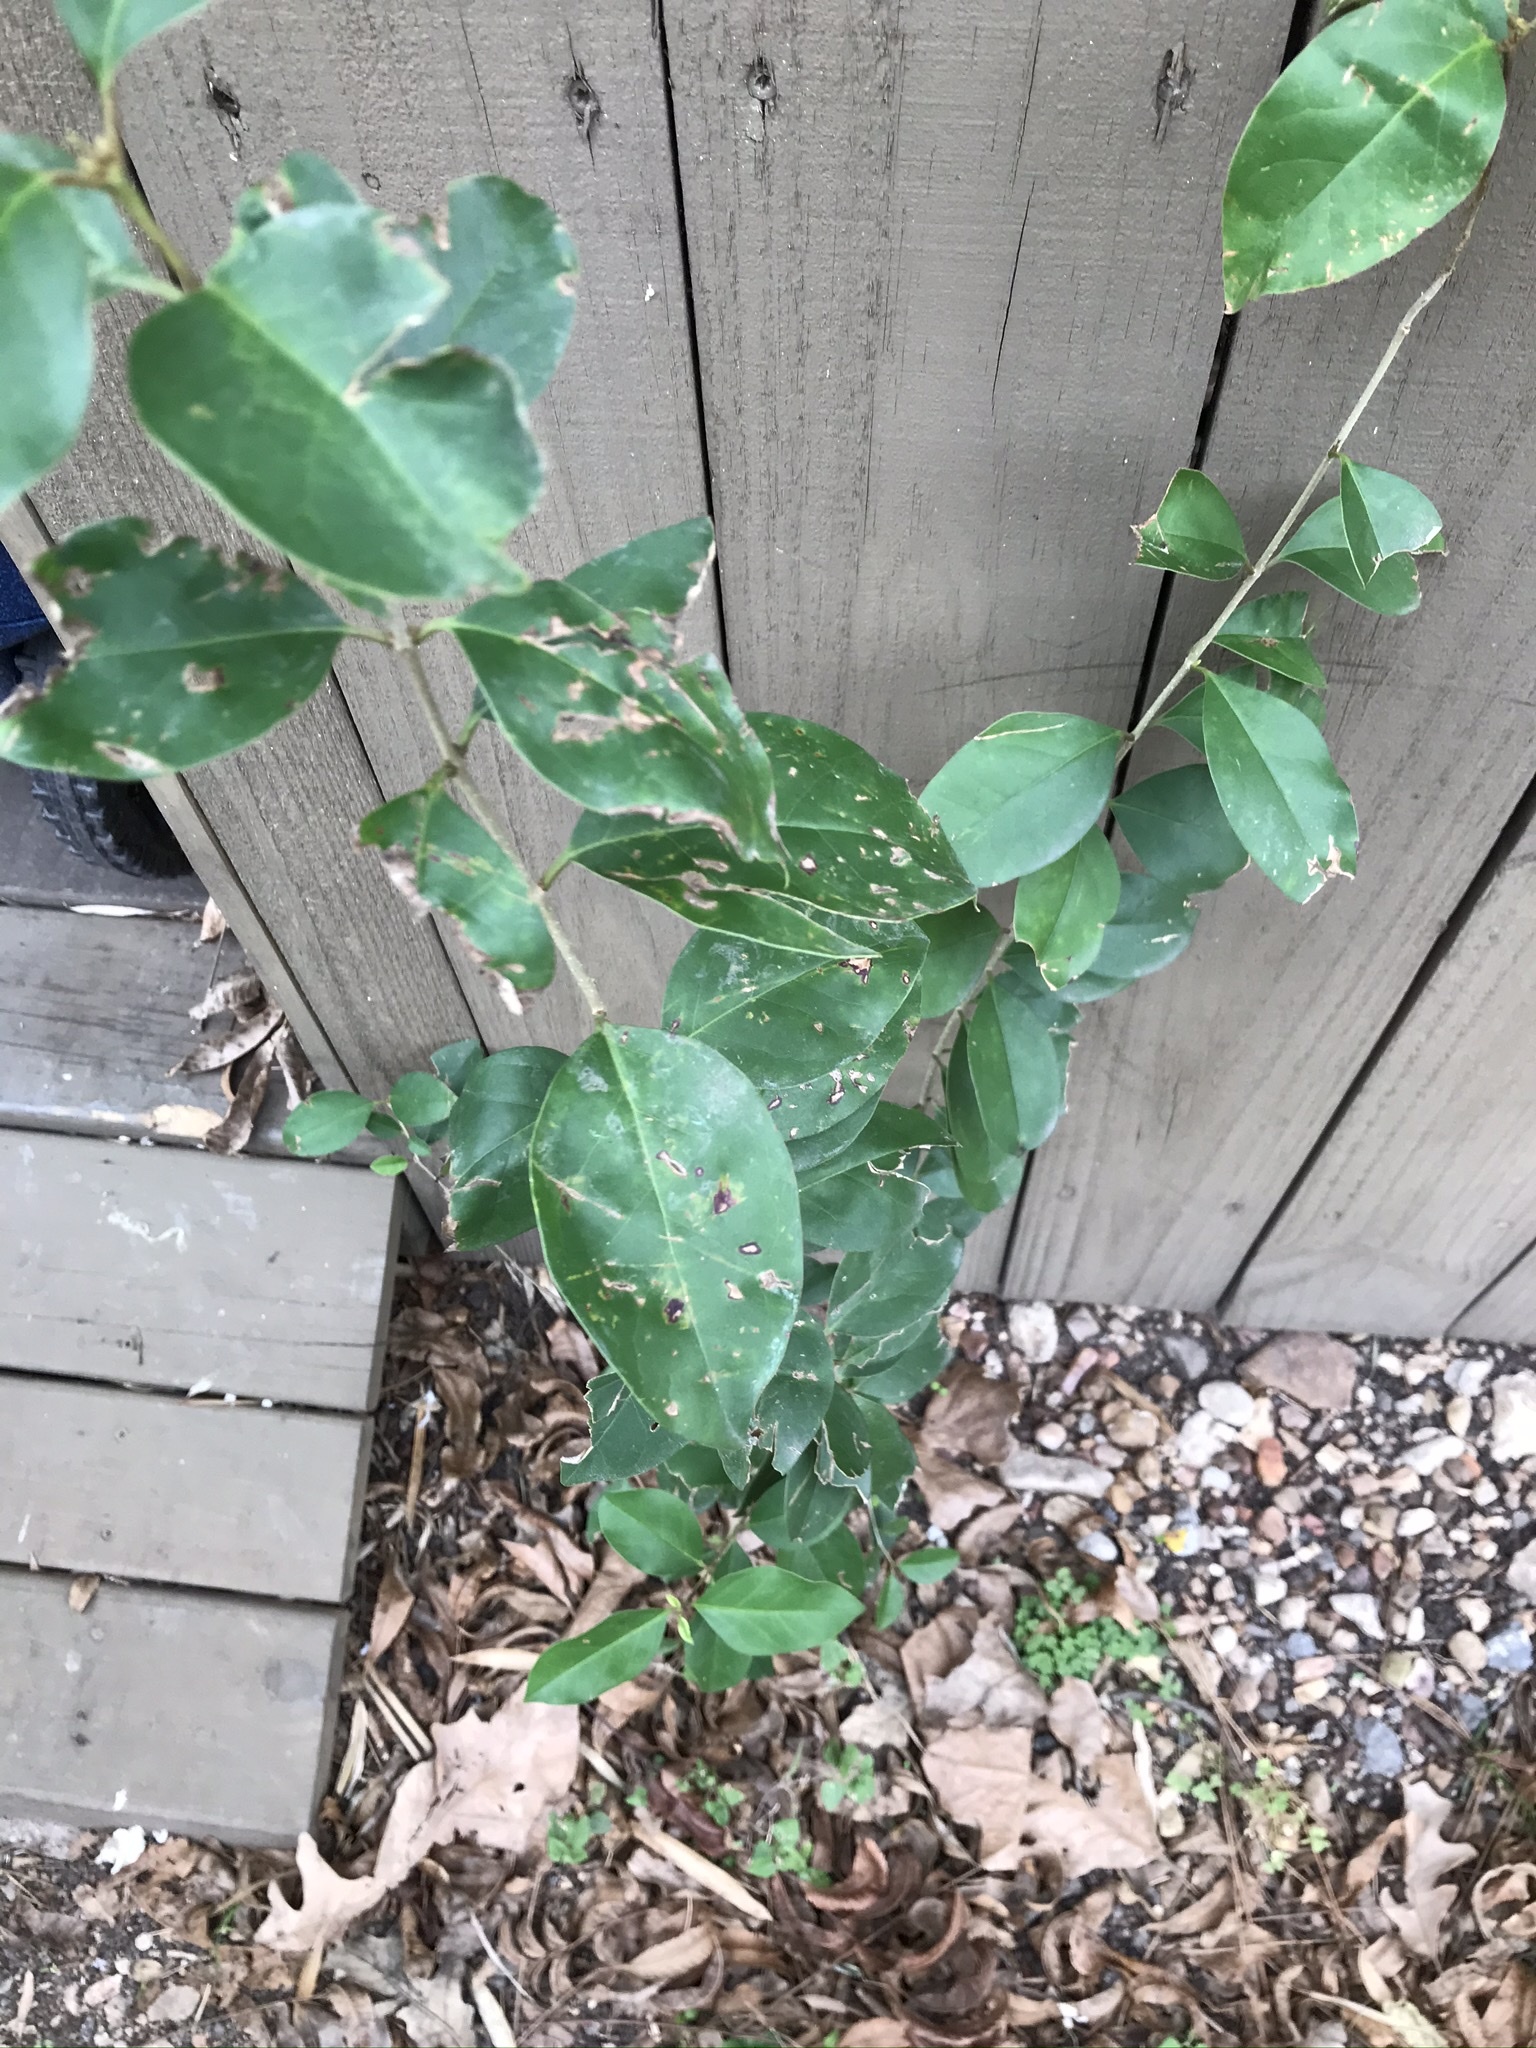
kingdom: Plantae
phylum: Tracheophyta
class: Magnoliopsida
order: Lamiales
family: Oleaceae
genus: Ligustrum
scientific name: Ligustrum lucidum
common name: Glossy privet
